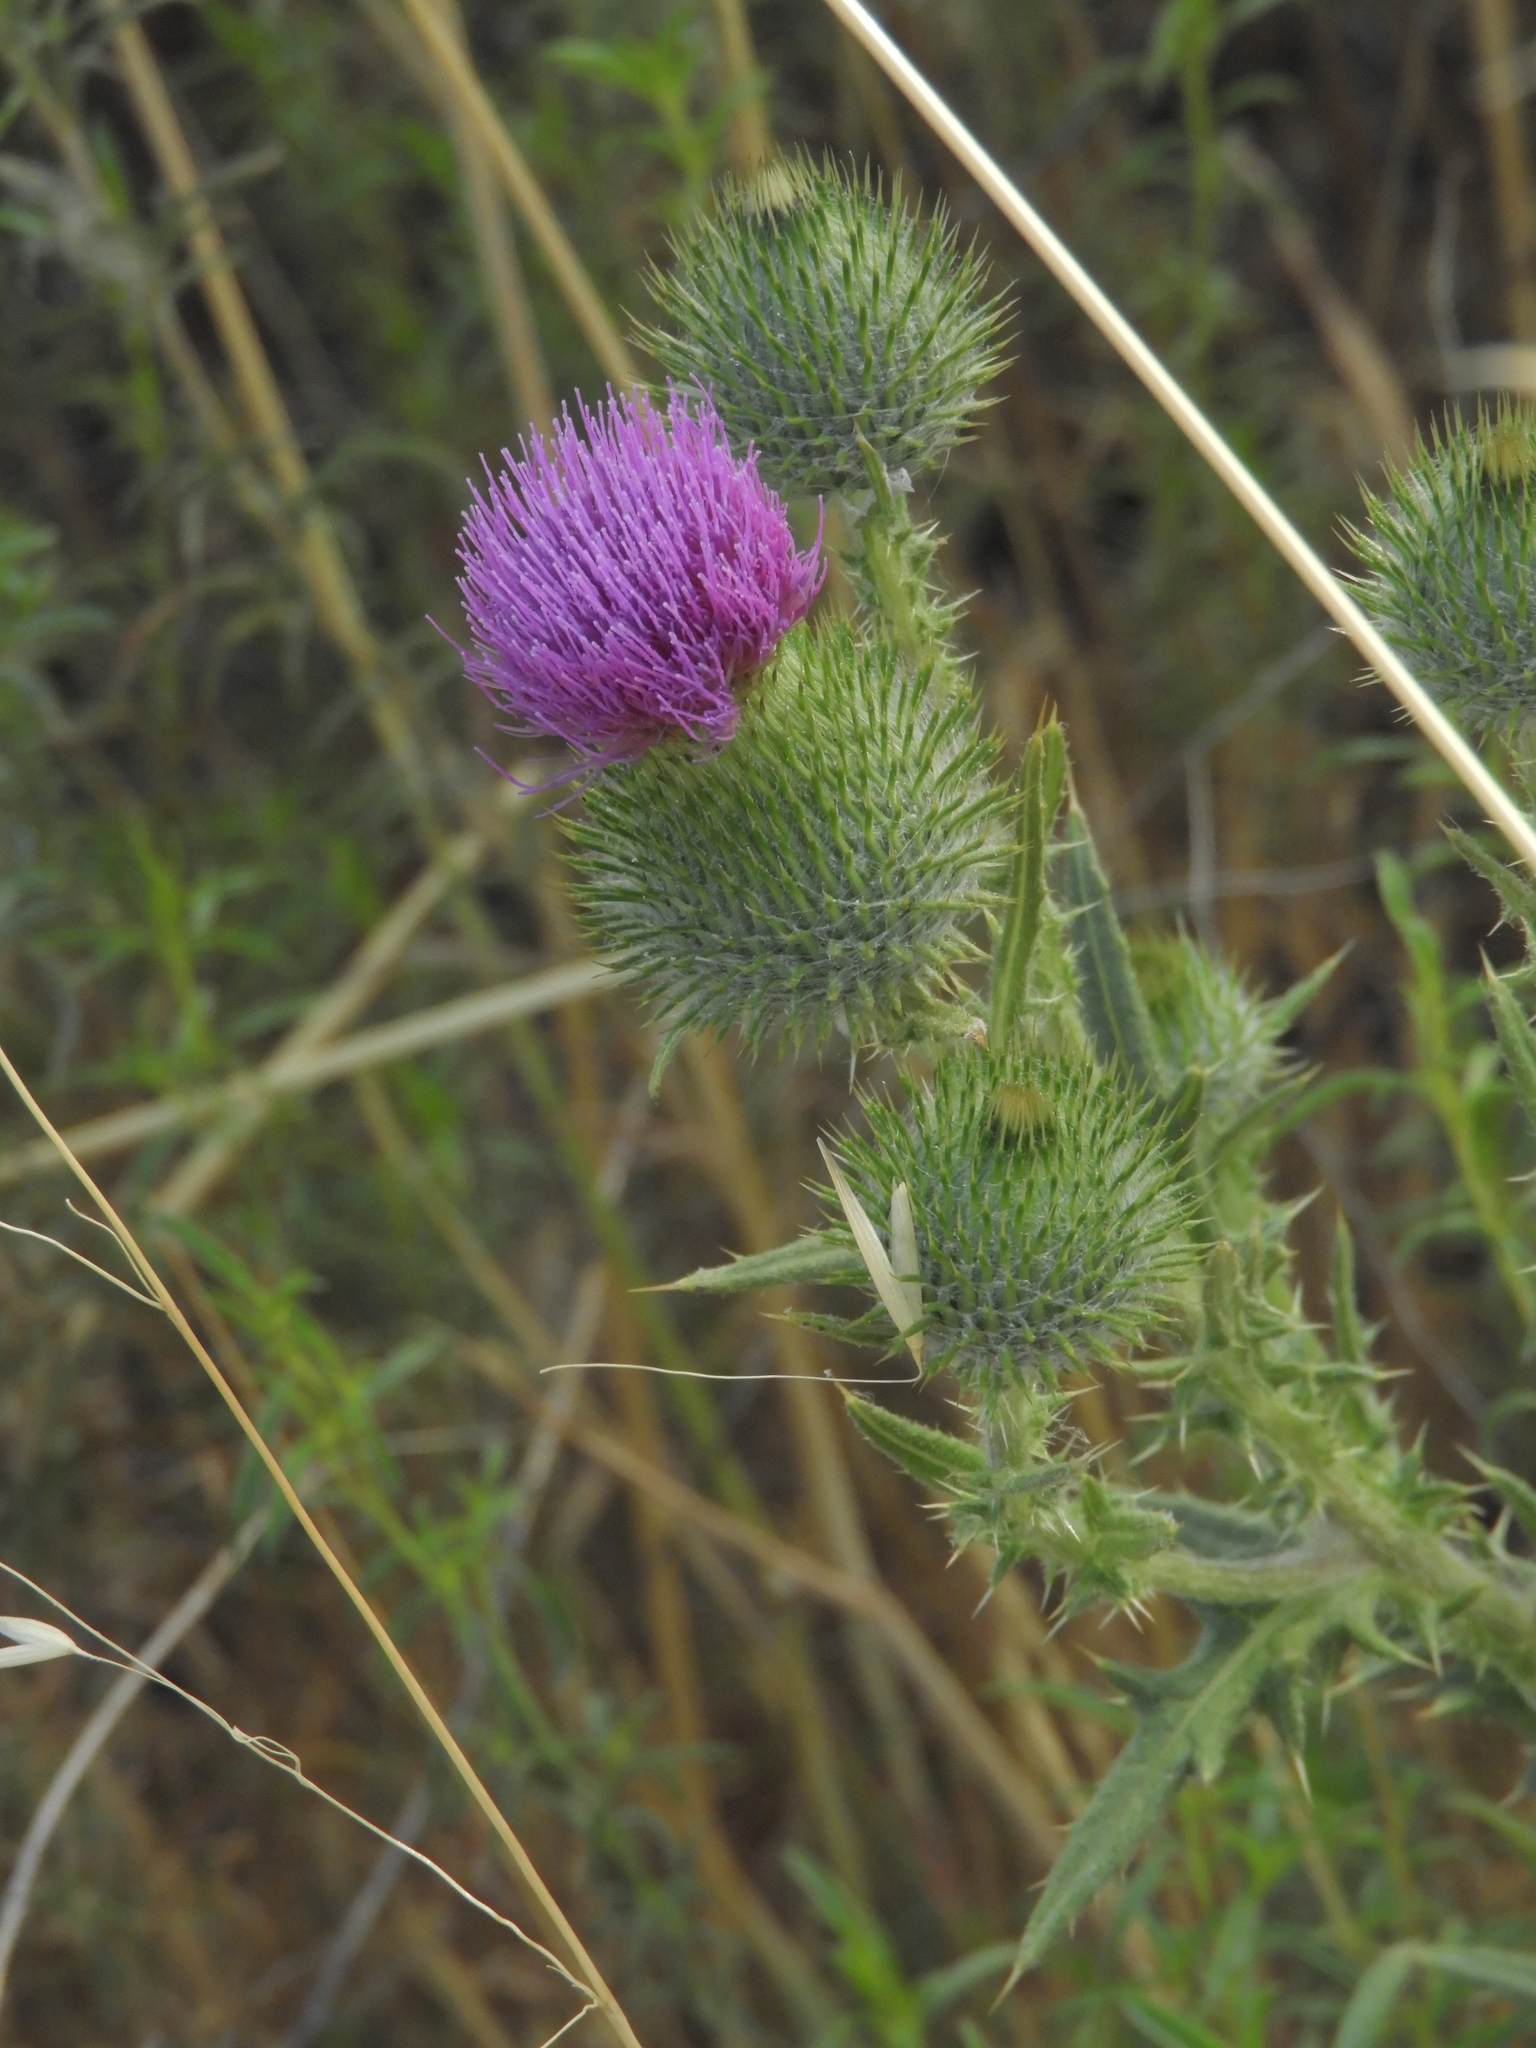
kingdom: Plantae
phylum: Tracheophyta
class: Magnoliopsida
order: Asterales
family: Asteraceae
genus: Cirsium
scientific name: Cirsium vulgare
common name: Bull thistle
